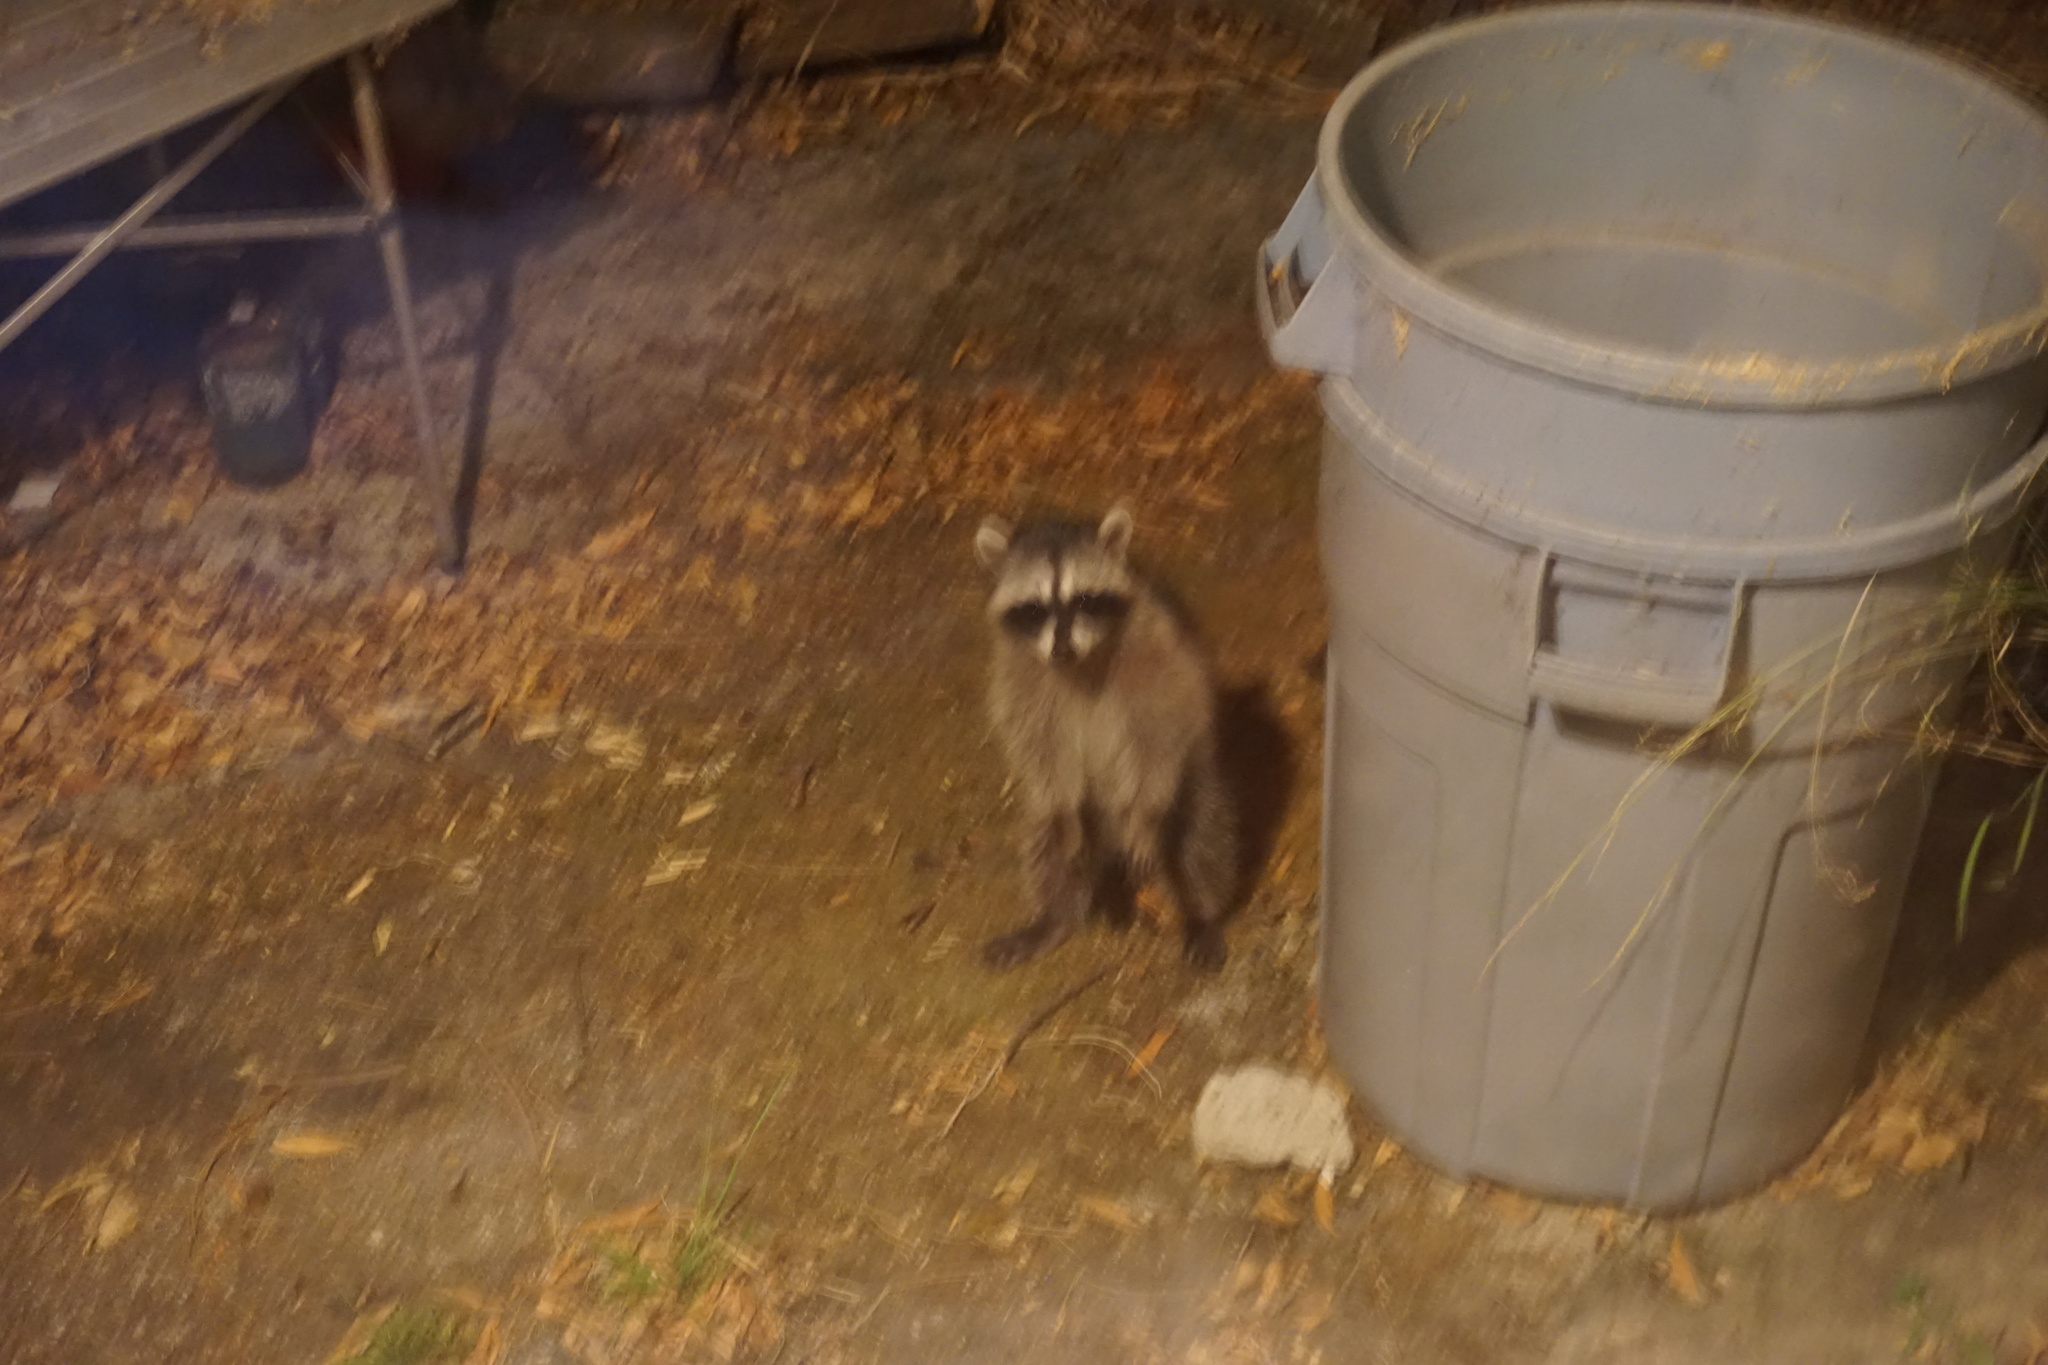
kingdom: Animalia
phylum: Chordata
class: Mammalia
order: Carnivora
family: Procyonidae
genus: Procyon
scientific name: Procyon lotor
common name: Raccoon
